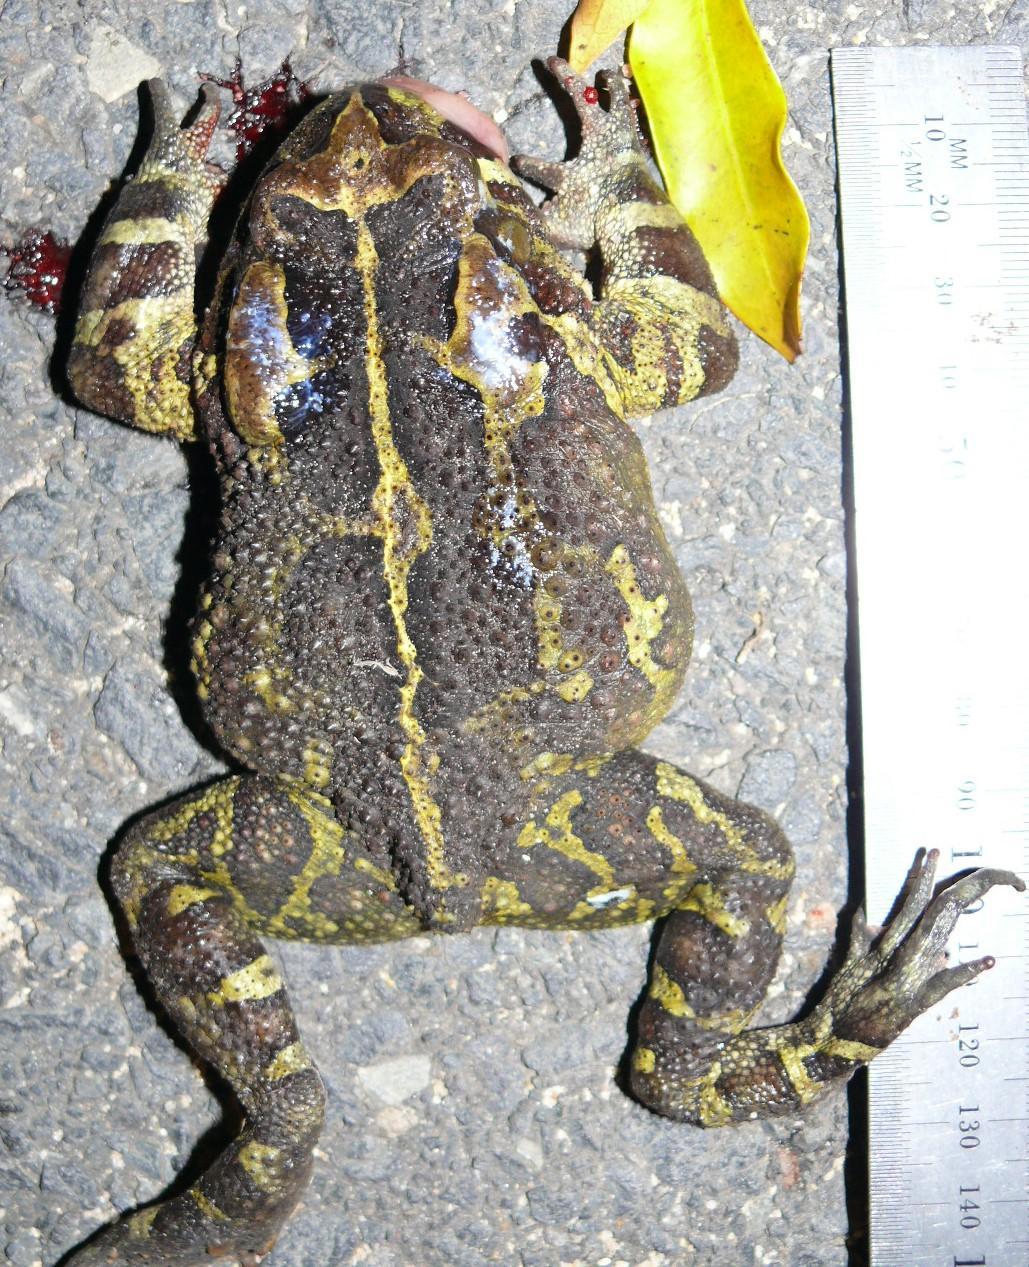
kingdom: Animalia
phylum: Chordata
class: Amphibia
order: Anura
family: Bufonidae
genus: Sclerophrys
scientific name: Sclerophrys pantherina
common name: Panther toad
